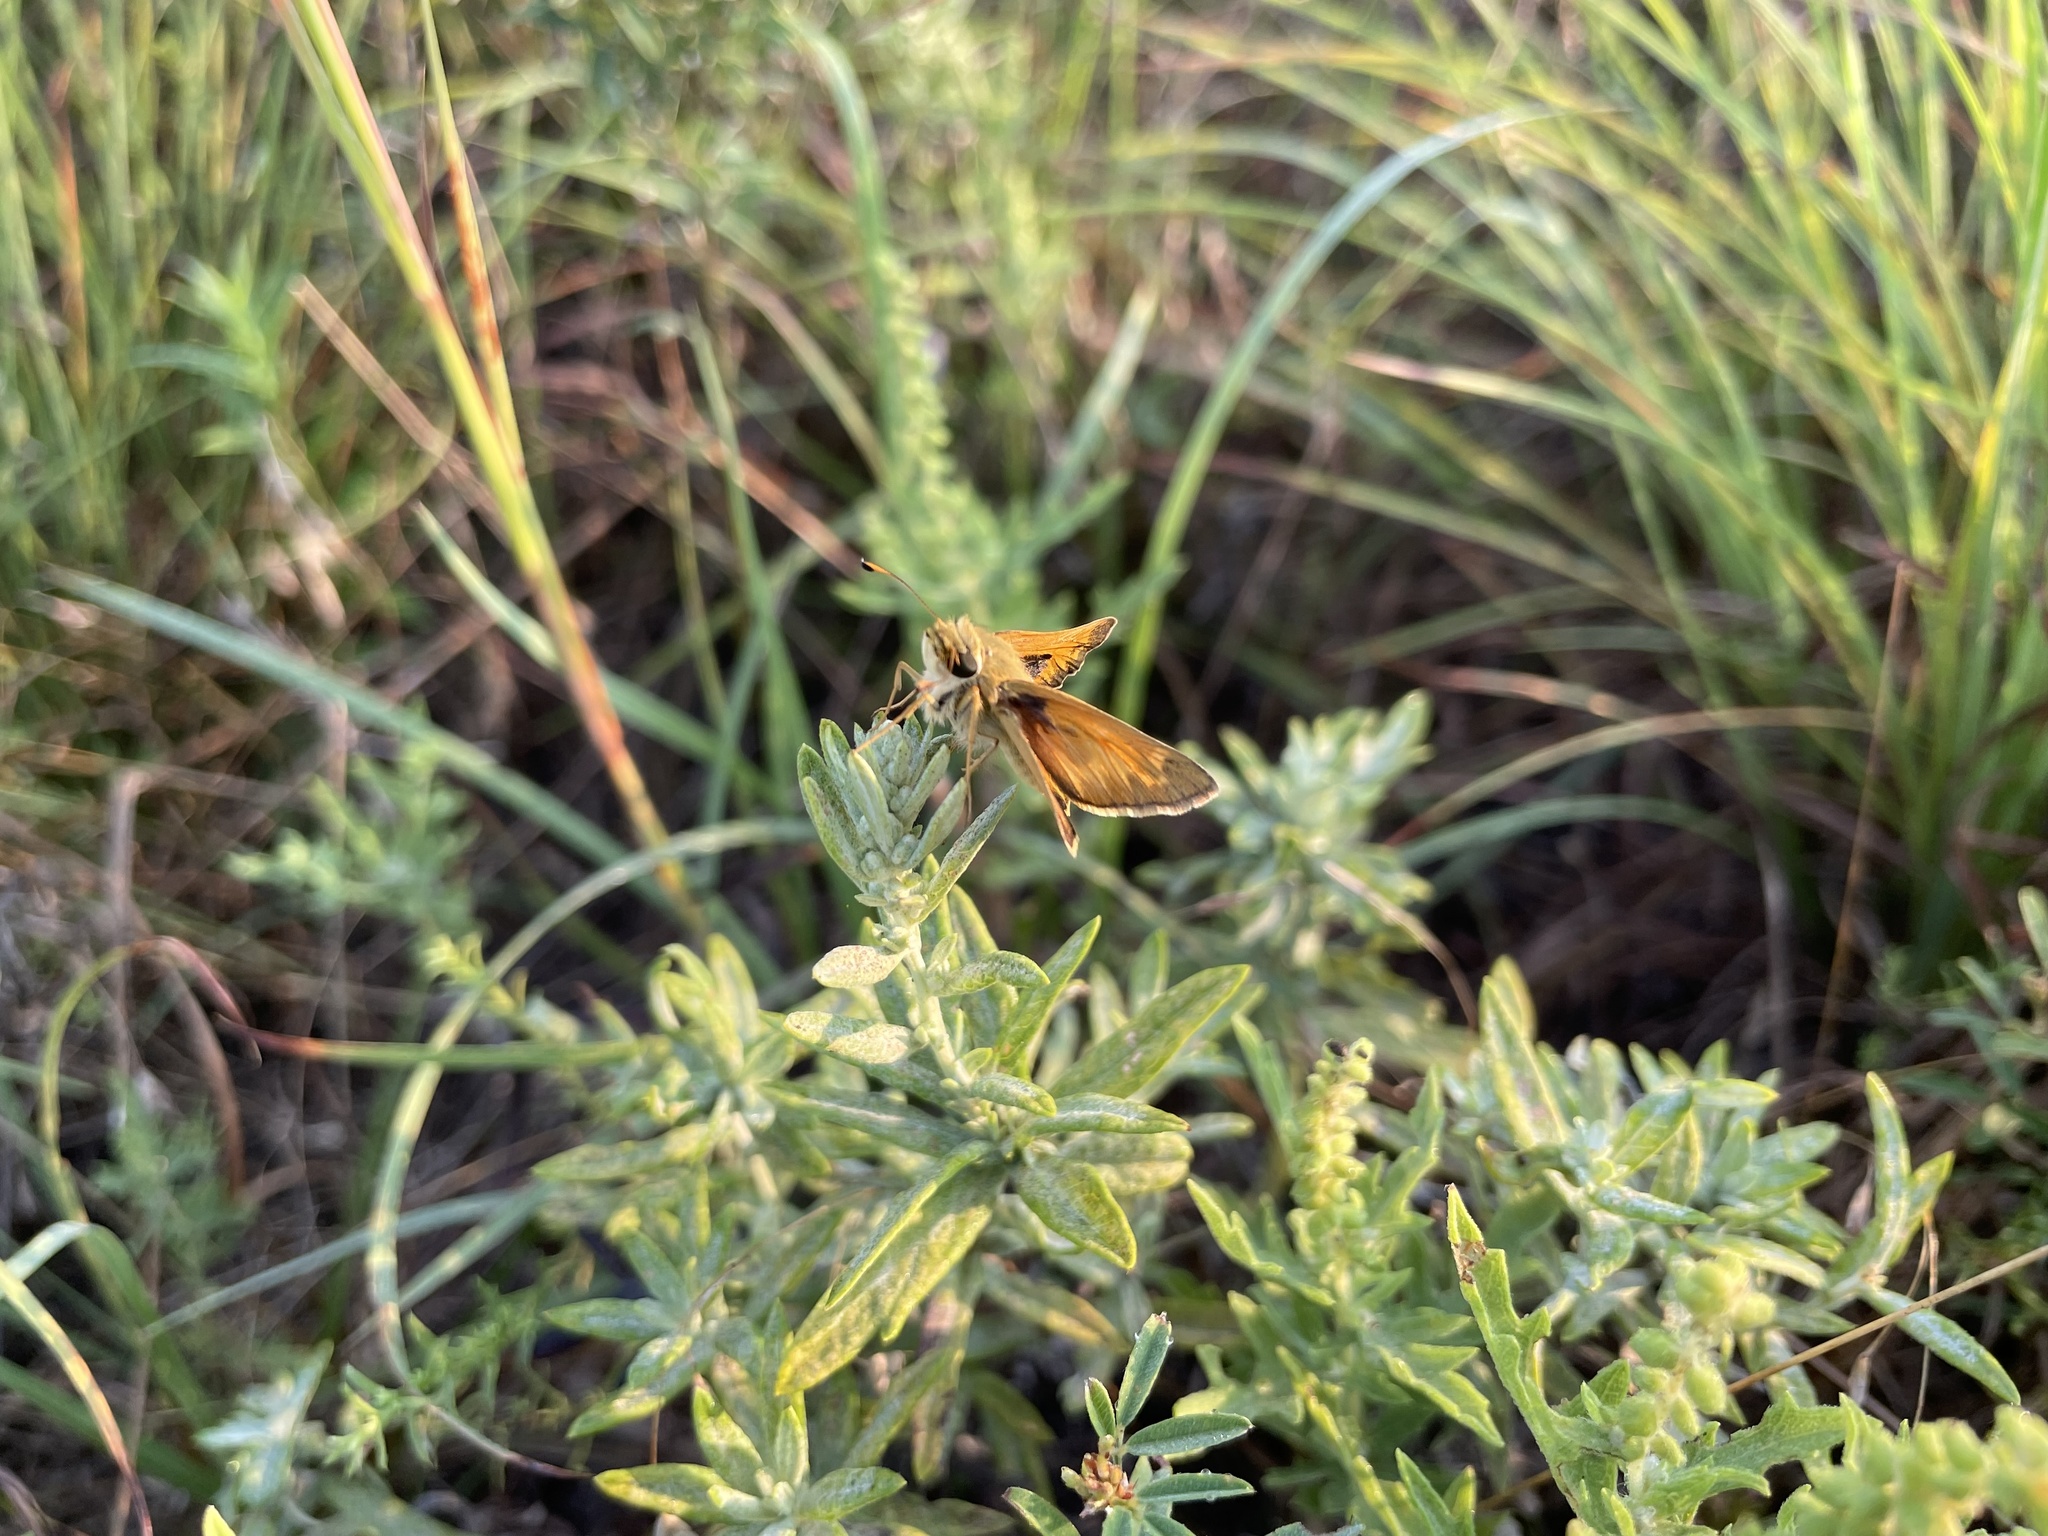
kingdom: Animalia
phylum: Arthropoda
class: Insecta
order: Lepidoptera
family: Hesperiidae
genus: Atalopedes
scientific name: Atalopedes
